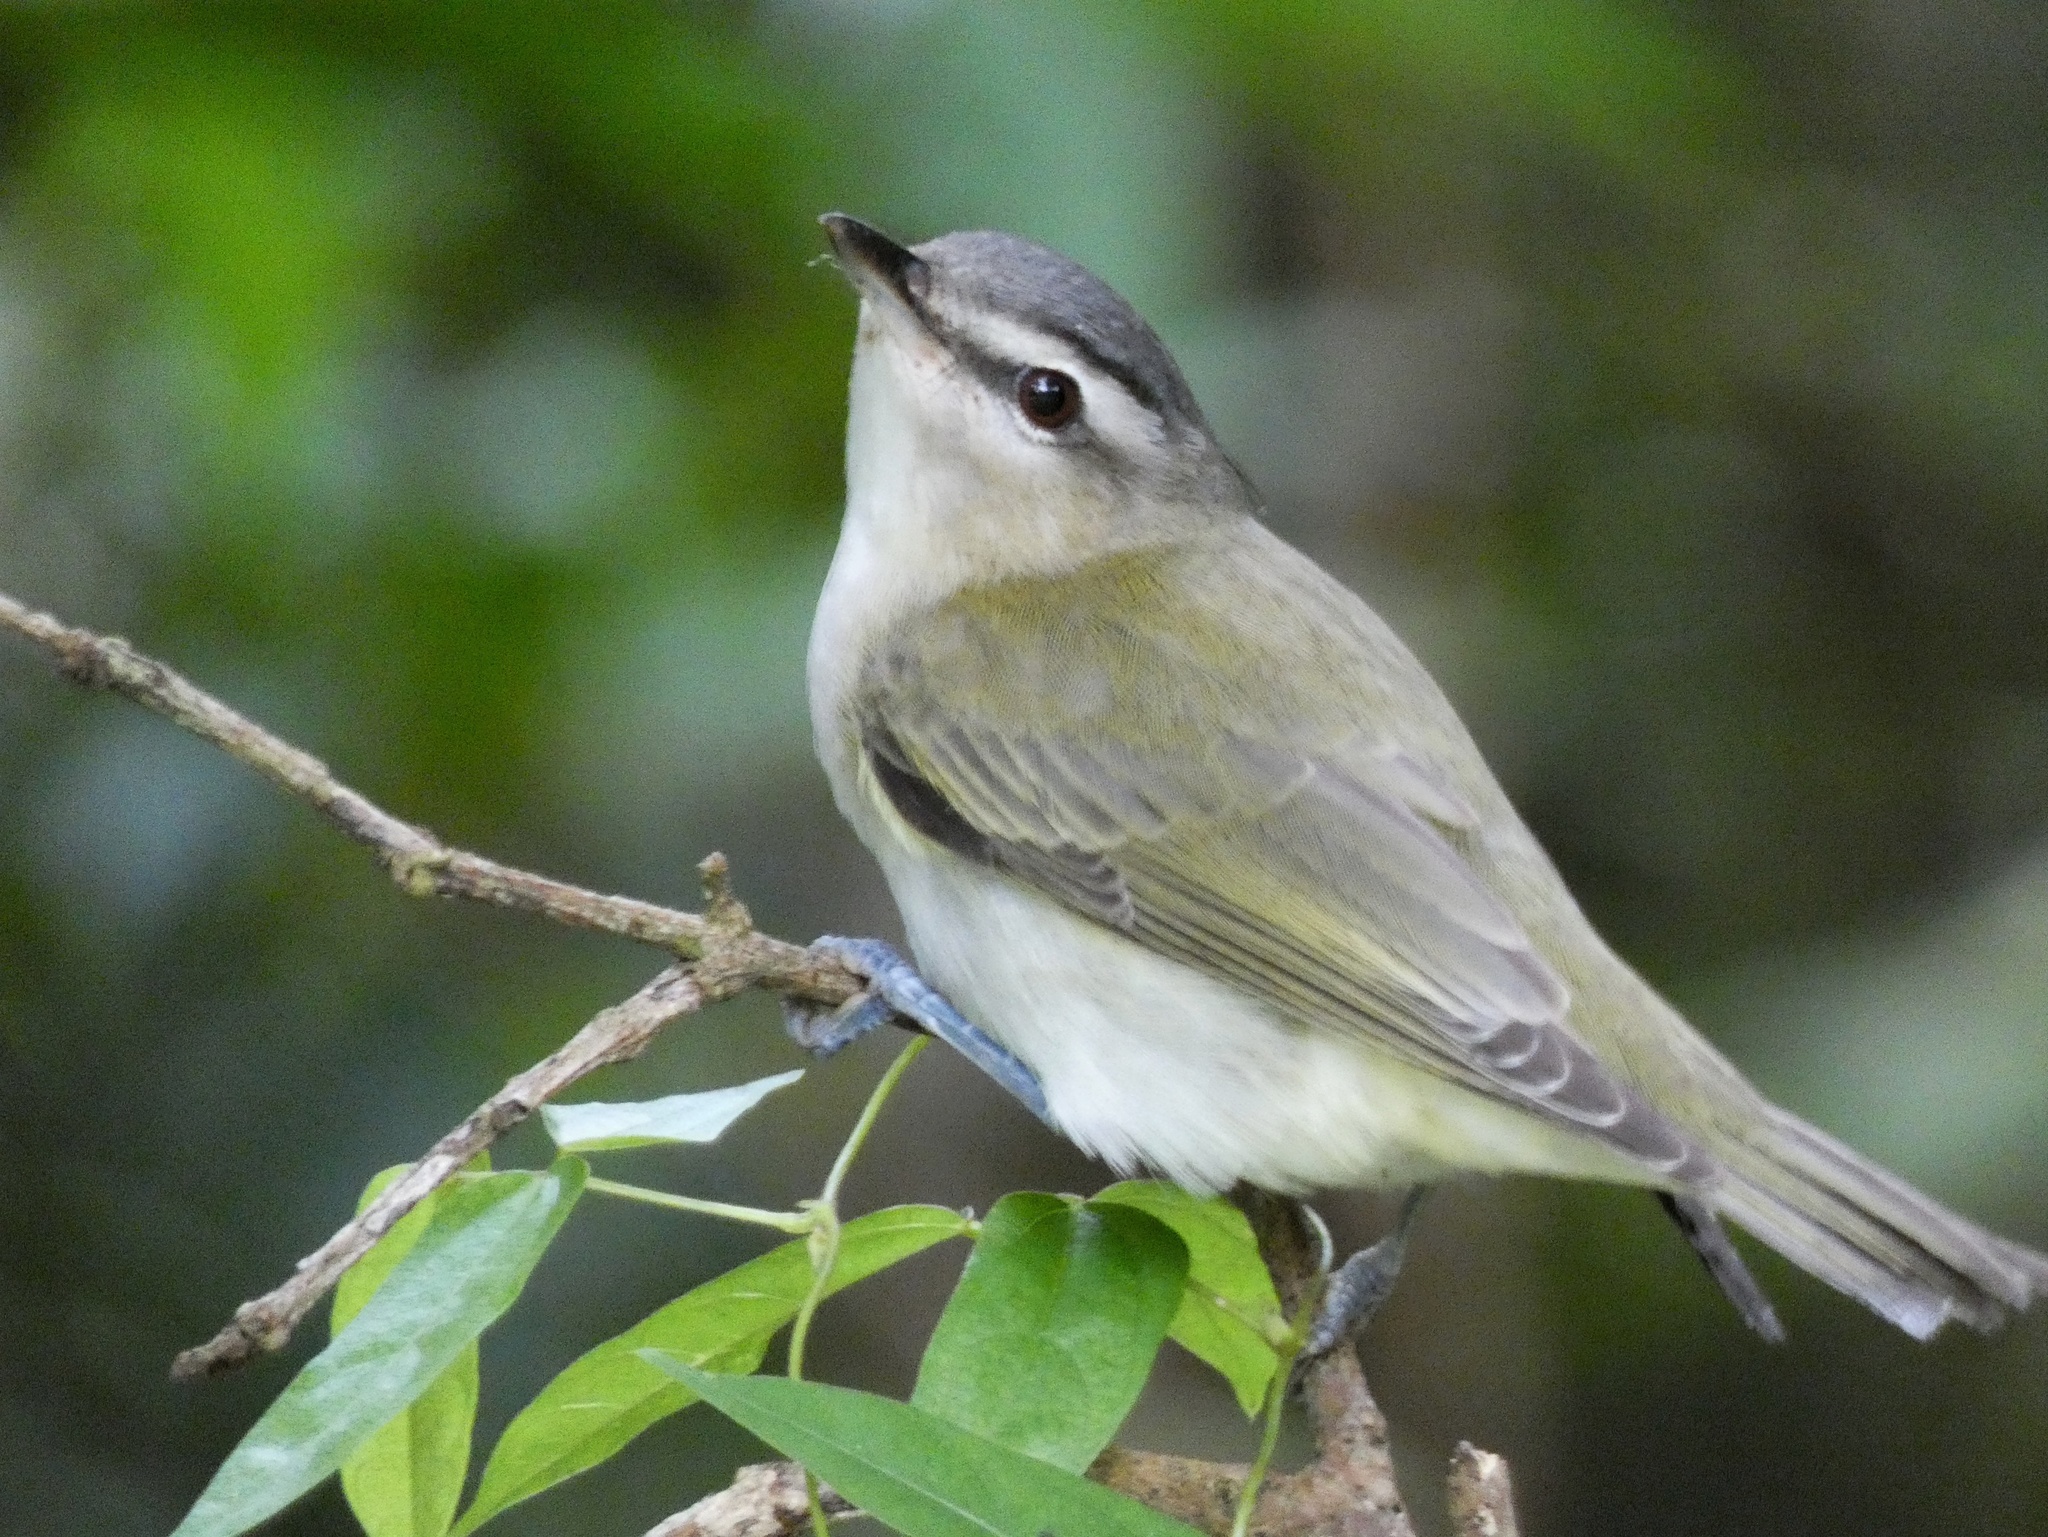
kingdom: Animalia
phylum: Chordata
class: Aves
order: Passeriformes
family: Vireonidae
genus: Vireo
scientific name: Vireo olivaceus
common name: Red-eyed vireo
